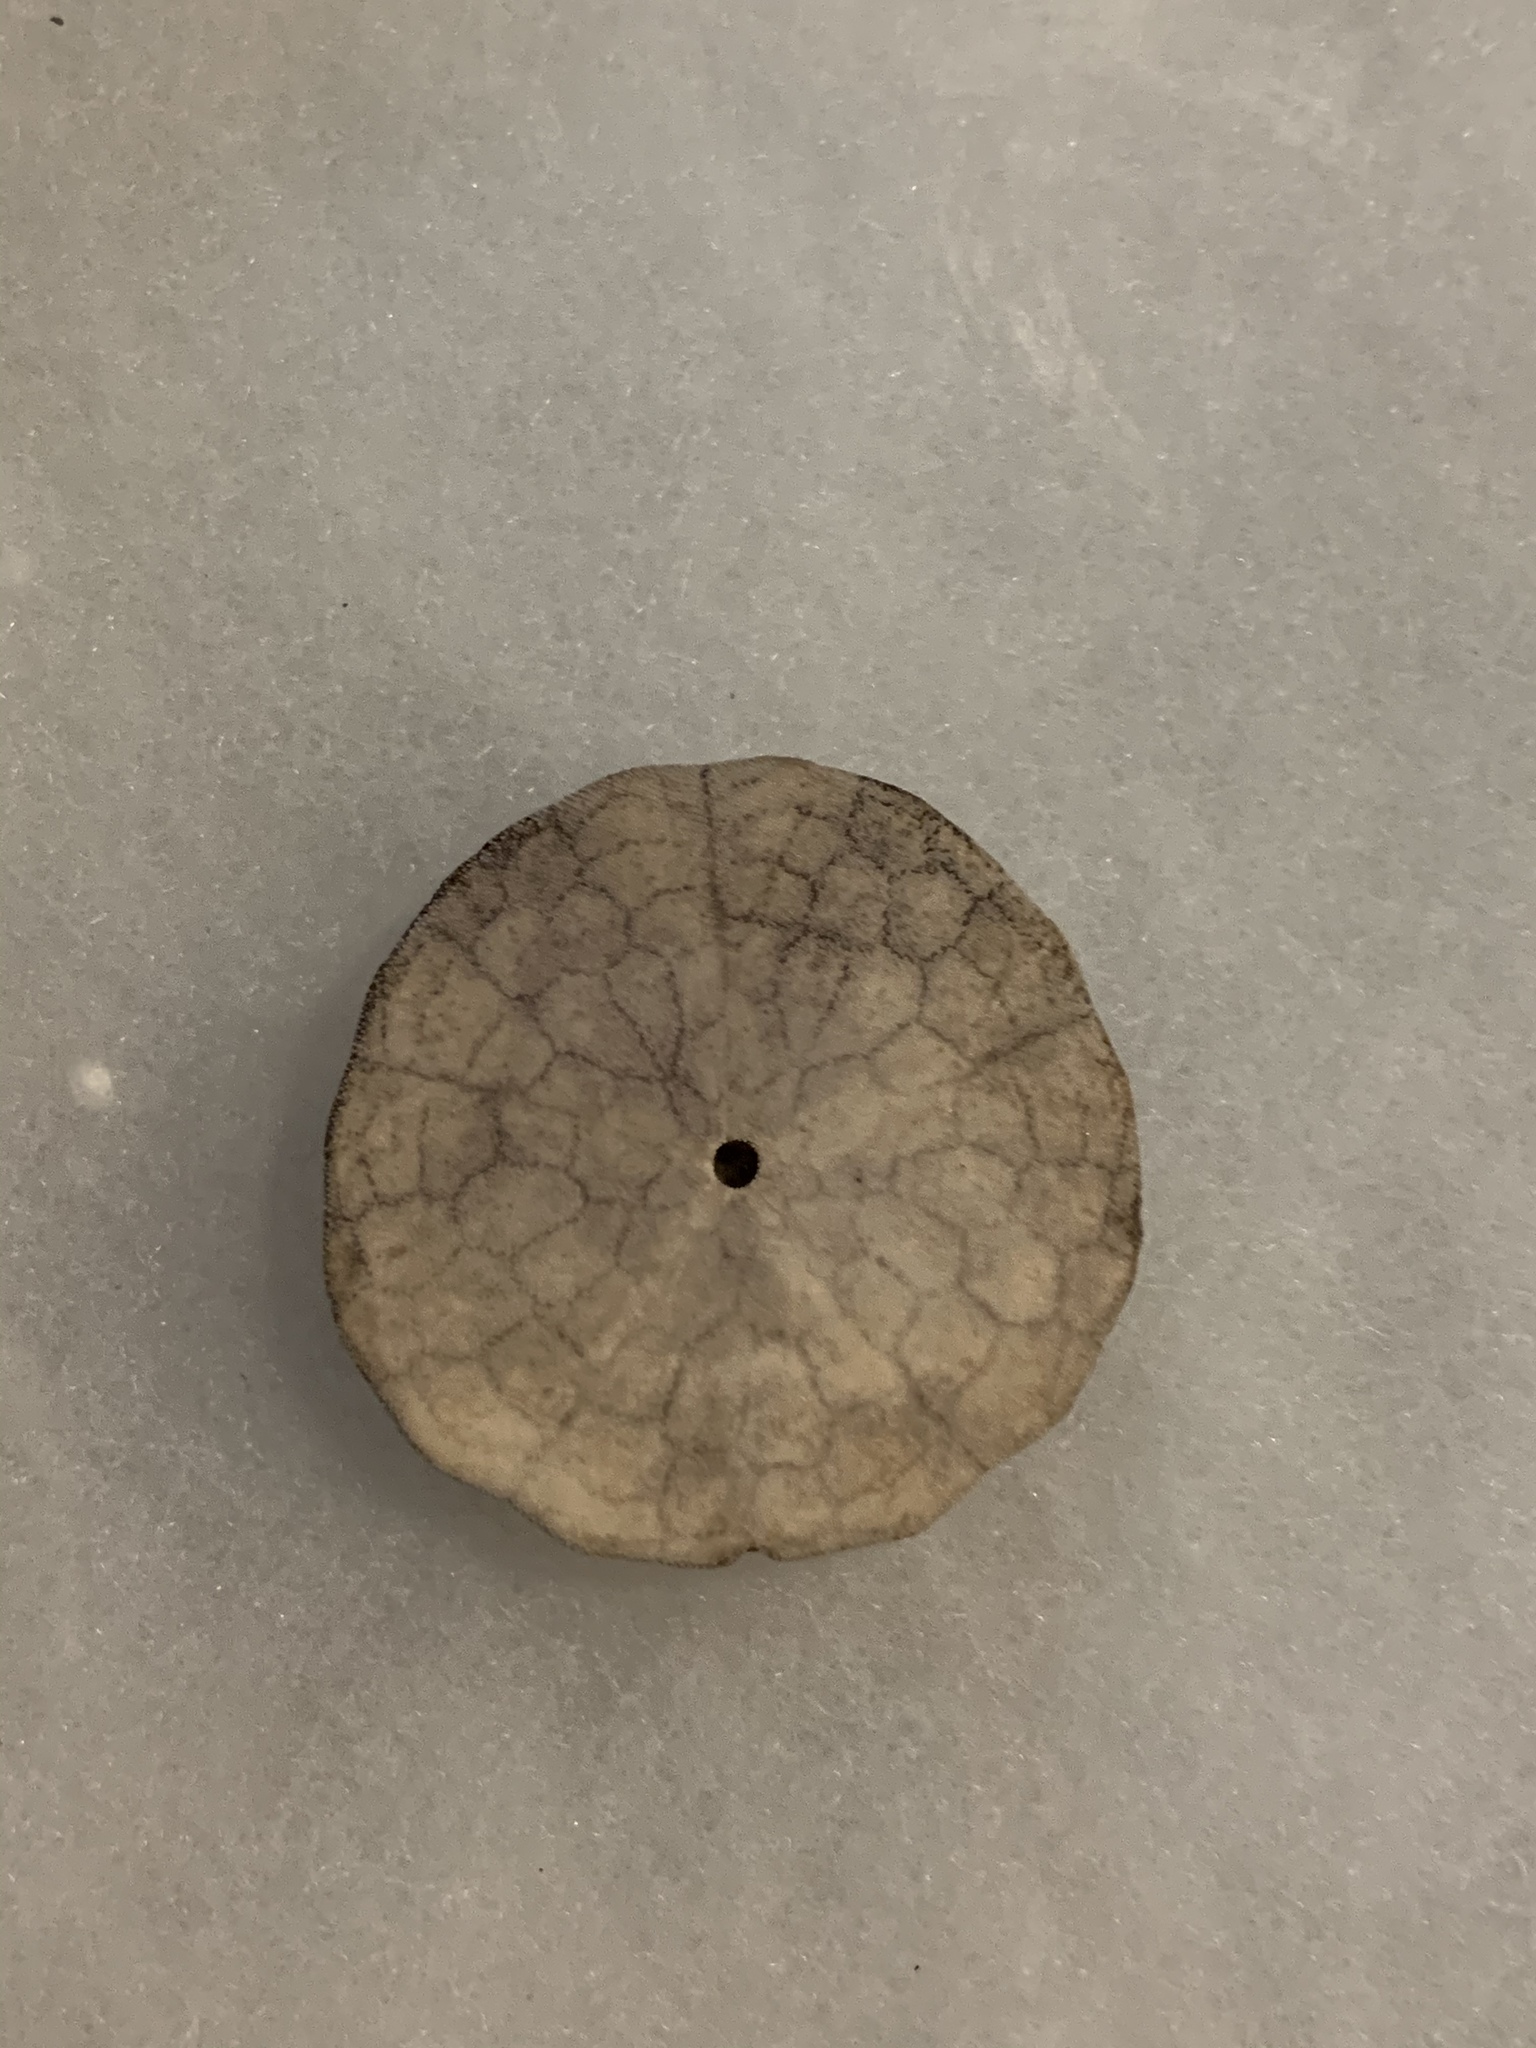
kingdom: Animalia
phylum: Echinodermata
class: Echinoidea
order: Echinolampadacea
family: Echinarachniidae
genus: Echinarachnius
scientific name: Echinarachnius parma
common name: Common sand dollar
